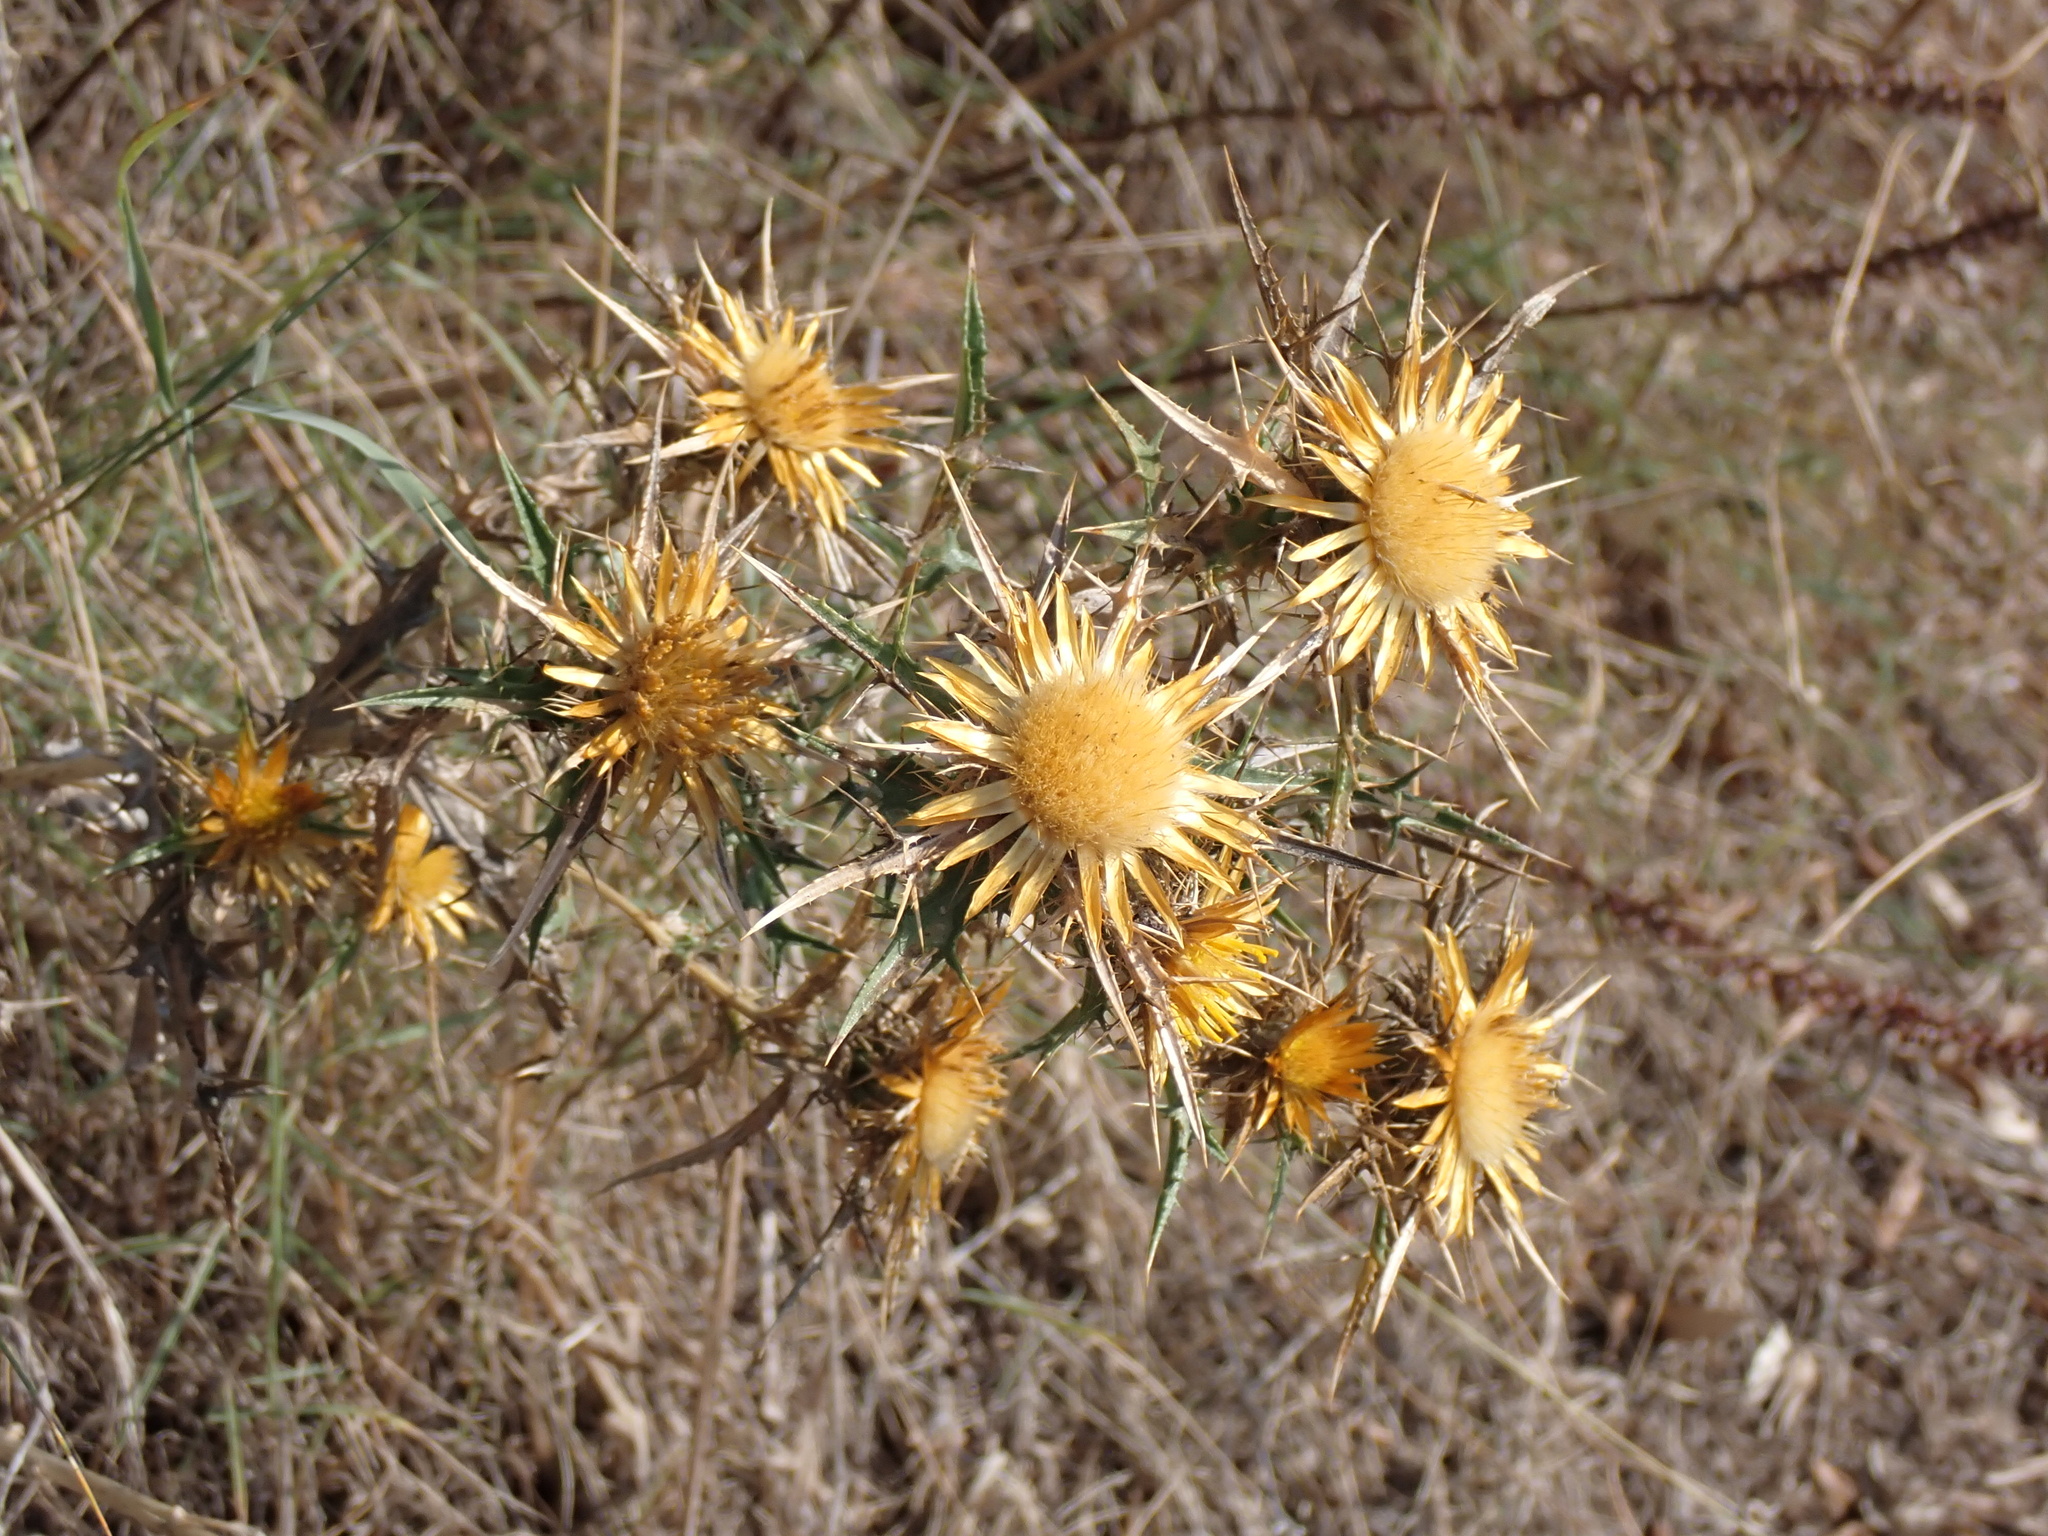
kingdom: Plantae
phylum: Tracheophyta
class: Magnoliopsida
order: Asterales
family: Asteraceae
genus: Carlina
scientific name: Carlina corymbosa
